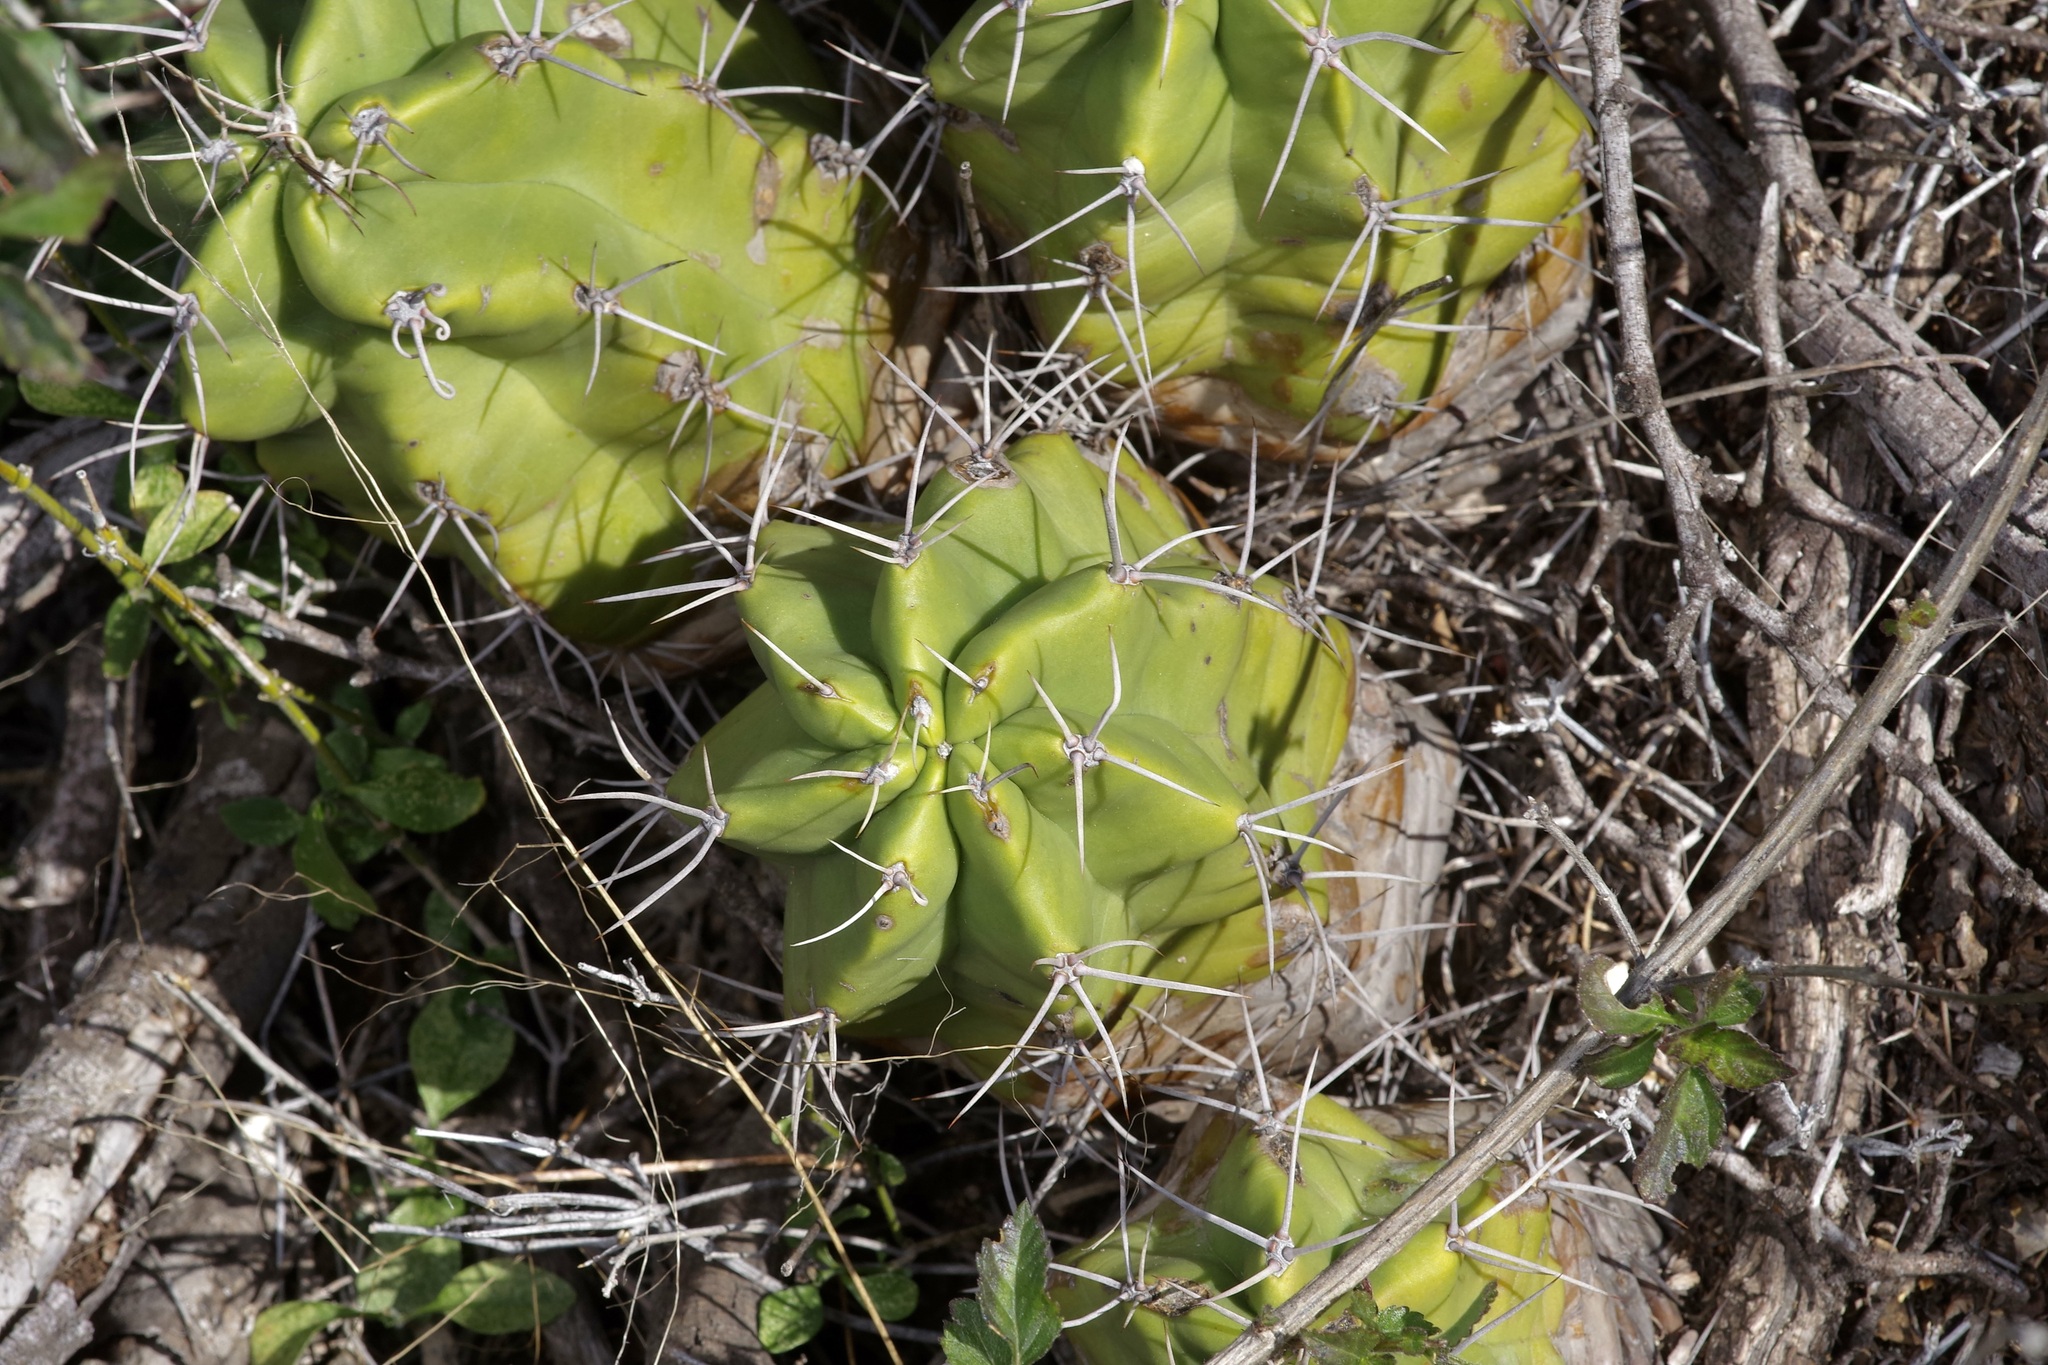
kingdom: Plantae
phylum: Tracheophyta
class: Magnoliopsida
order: Caryophyllales
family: Cactaceae
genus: Echinocereus
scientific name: Echinocereus coccineus
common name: Scarlet hedgehog cactus
